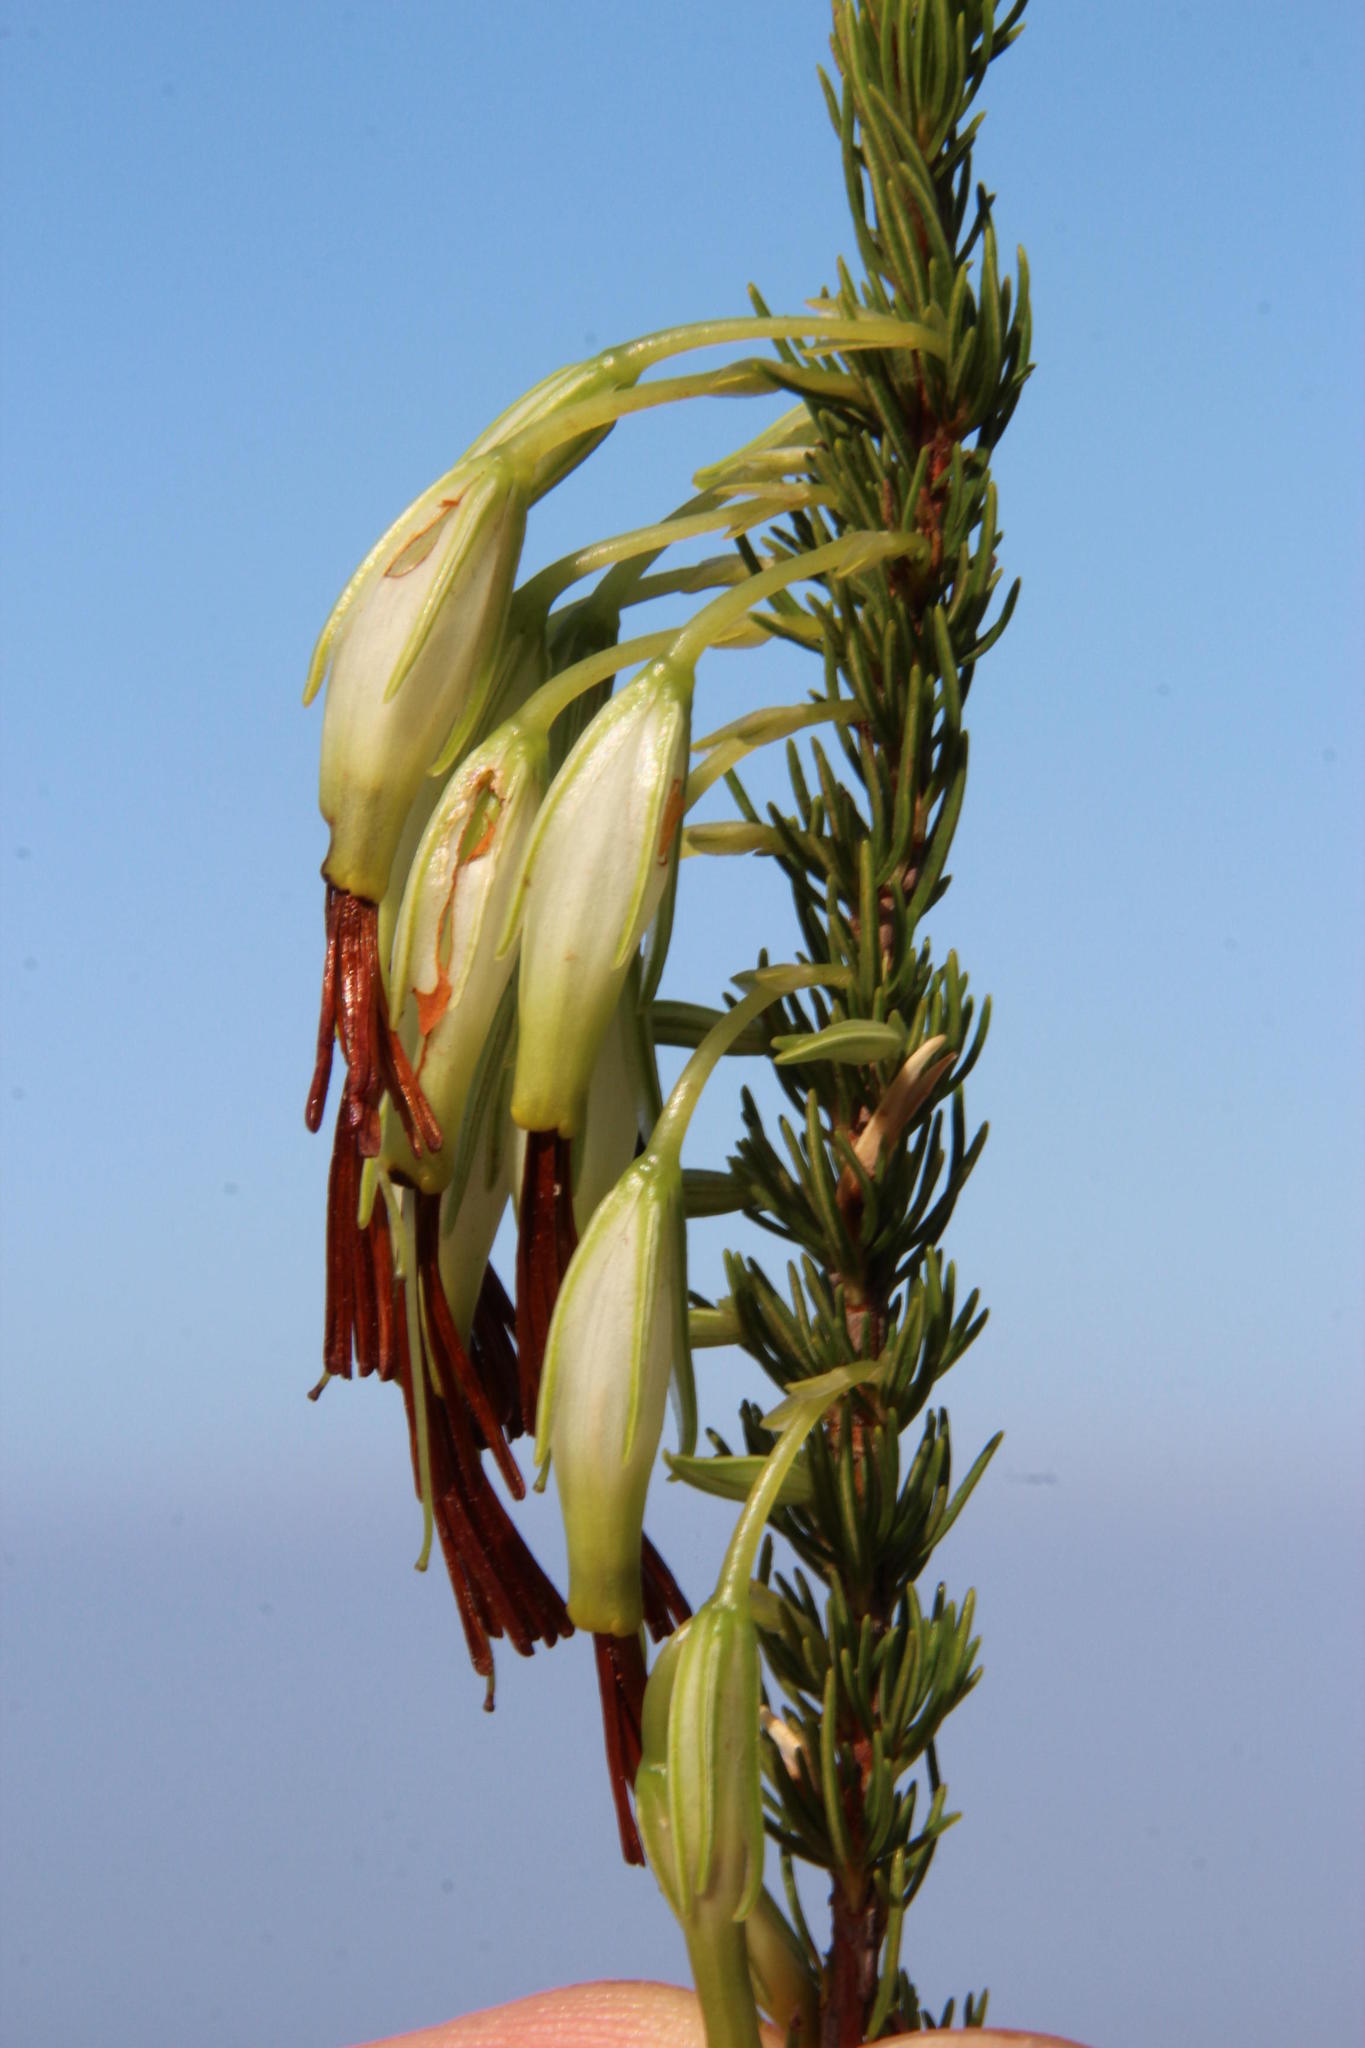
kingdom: Plantae
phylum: Tracheophyta
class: Magnoliopsida
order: Ericales
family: Ericaceae
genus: Erica
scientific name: Erica plukenetii
